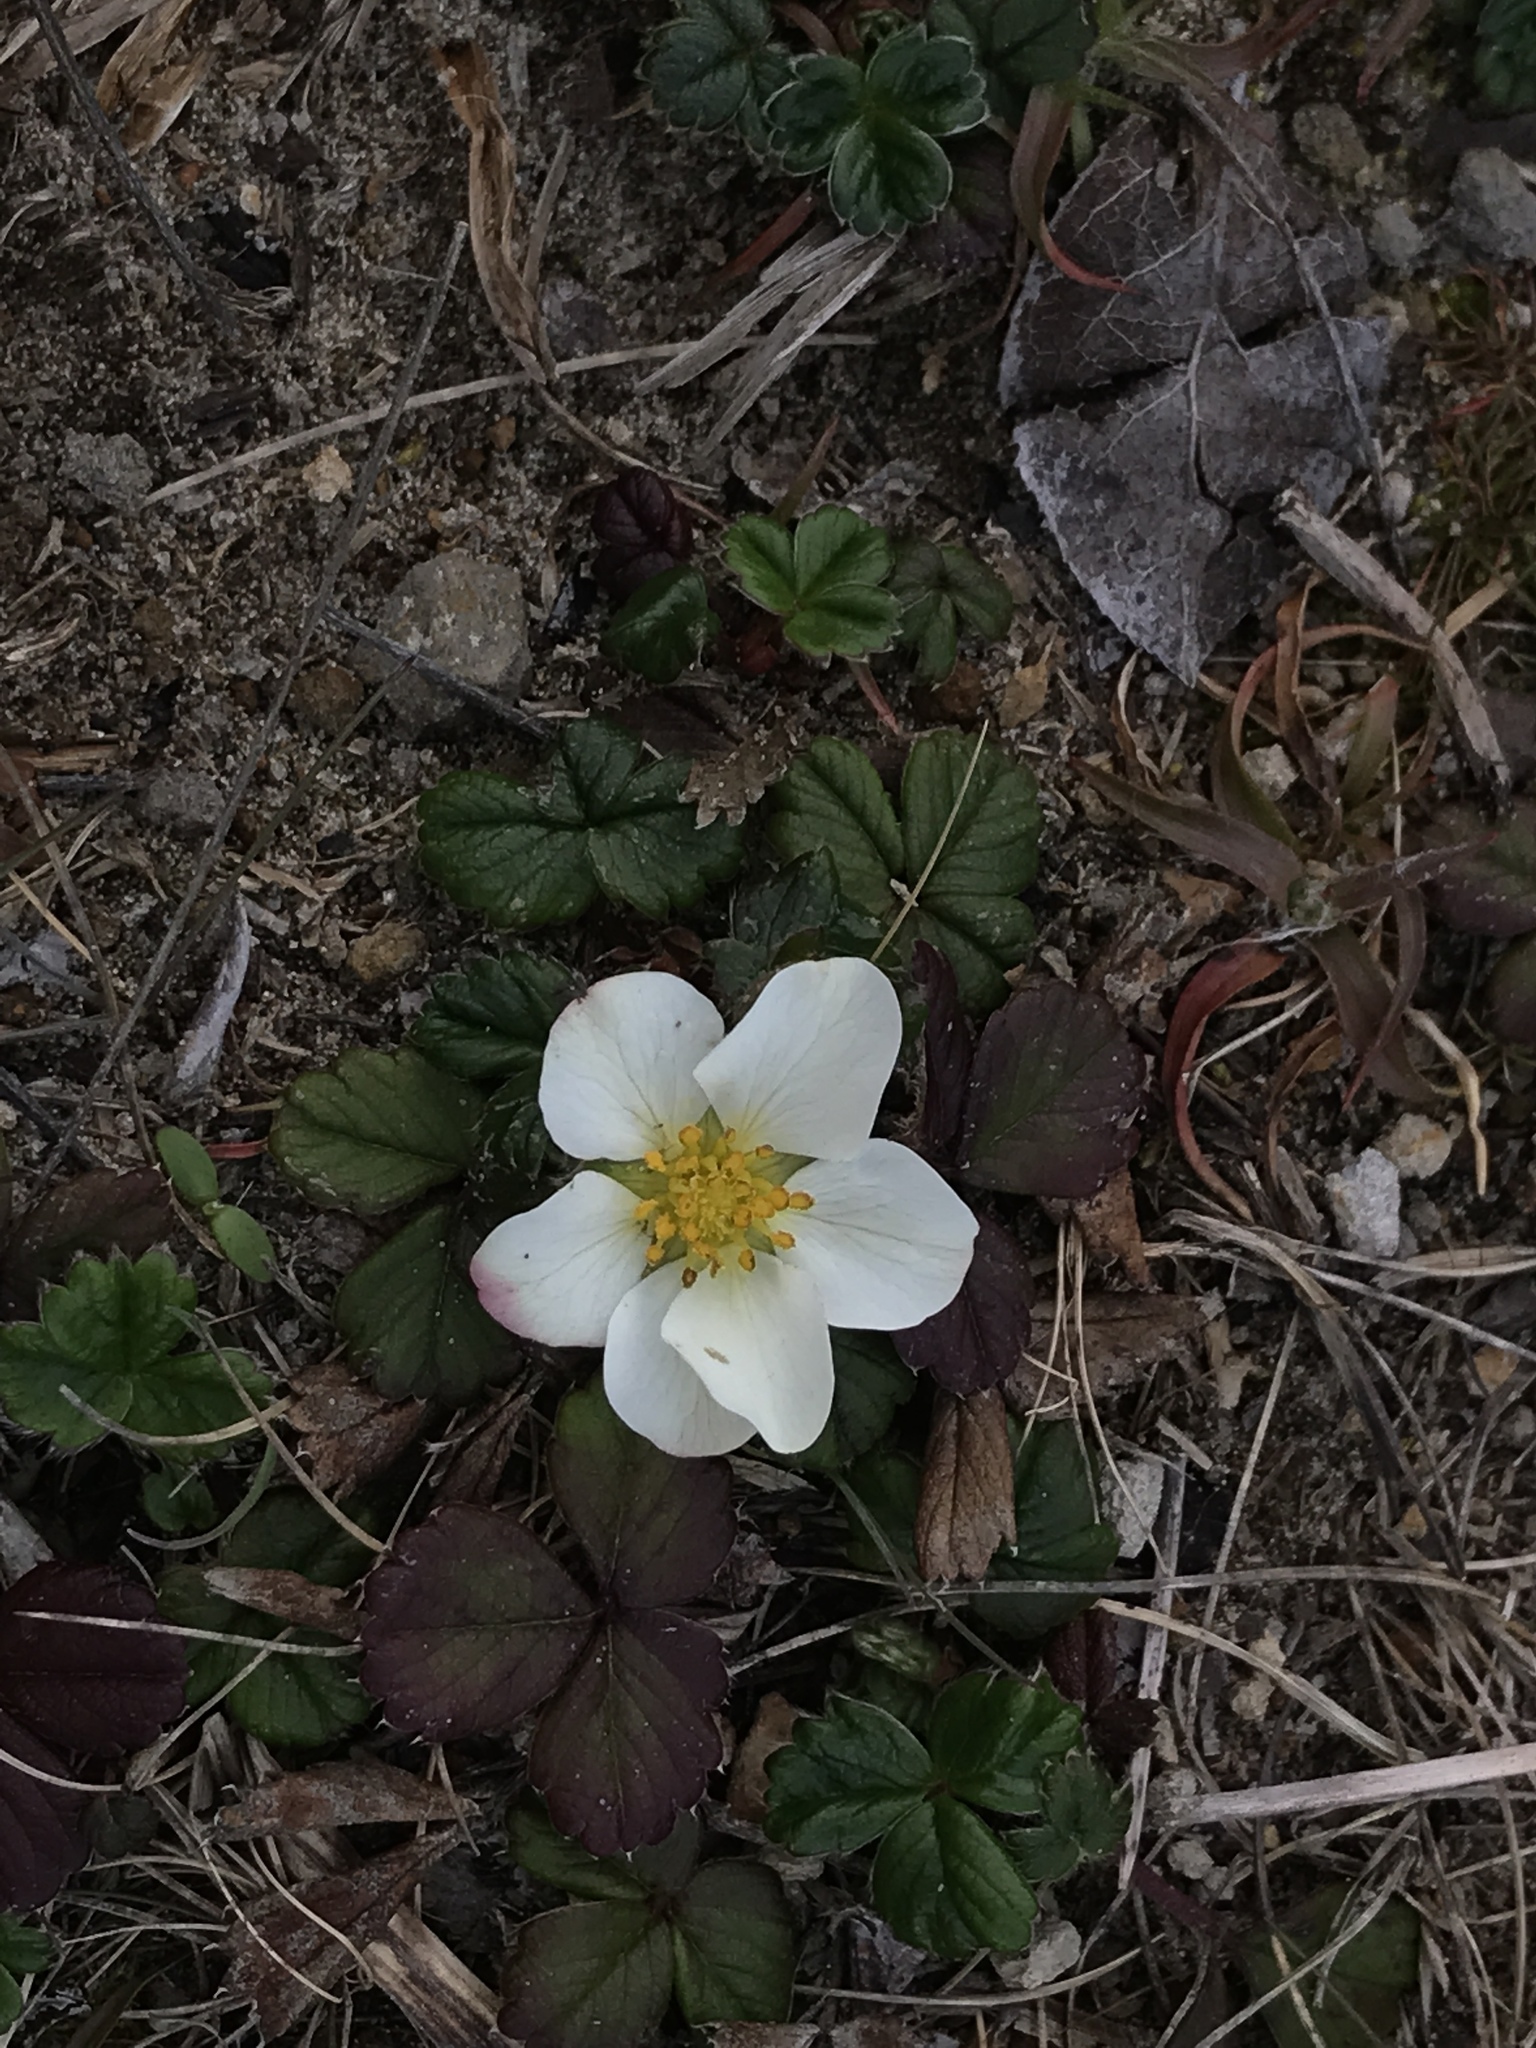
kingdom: Plantae
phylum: Tracheophyta
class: Magnoliopsida
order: Rosales
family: Rosaceae
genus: Fragaria
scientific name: Fragaria chiloensis
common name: Beach strawberry
